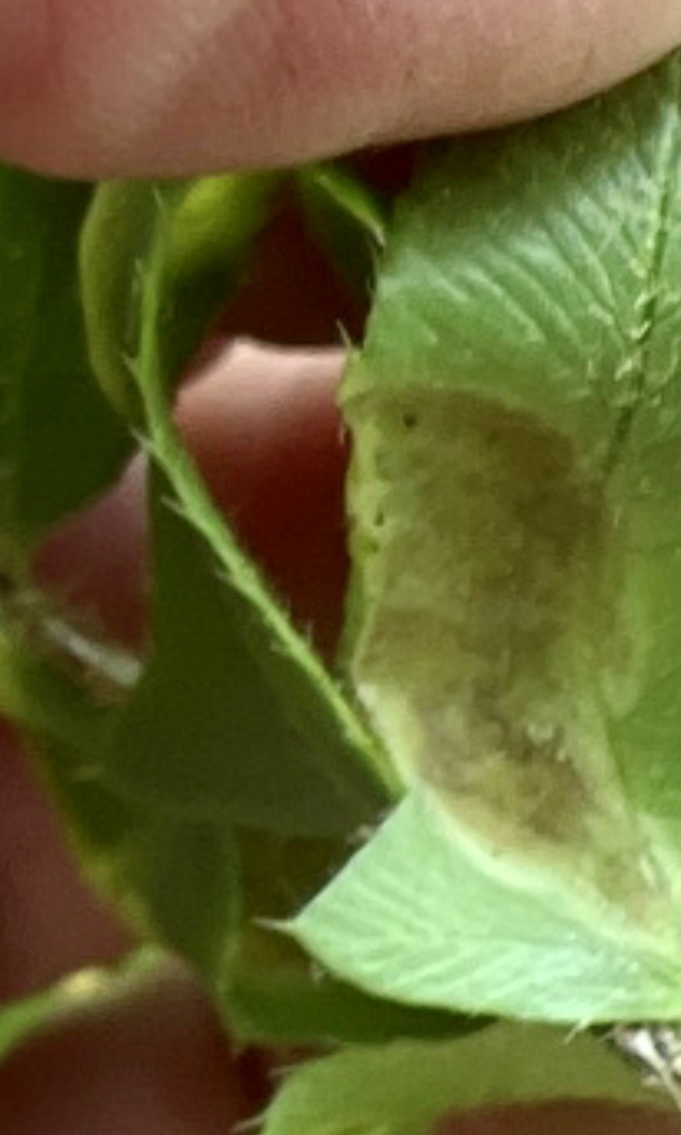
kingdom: Fungi
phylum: Ascomycota
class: Taphrinomycetes
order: Taphrinales
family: Taphrinaceae
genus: Taphrina
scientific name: Taphrina polystichi
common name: Christmas fern leaf curl
